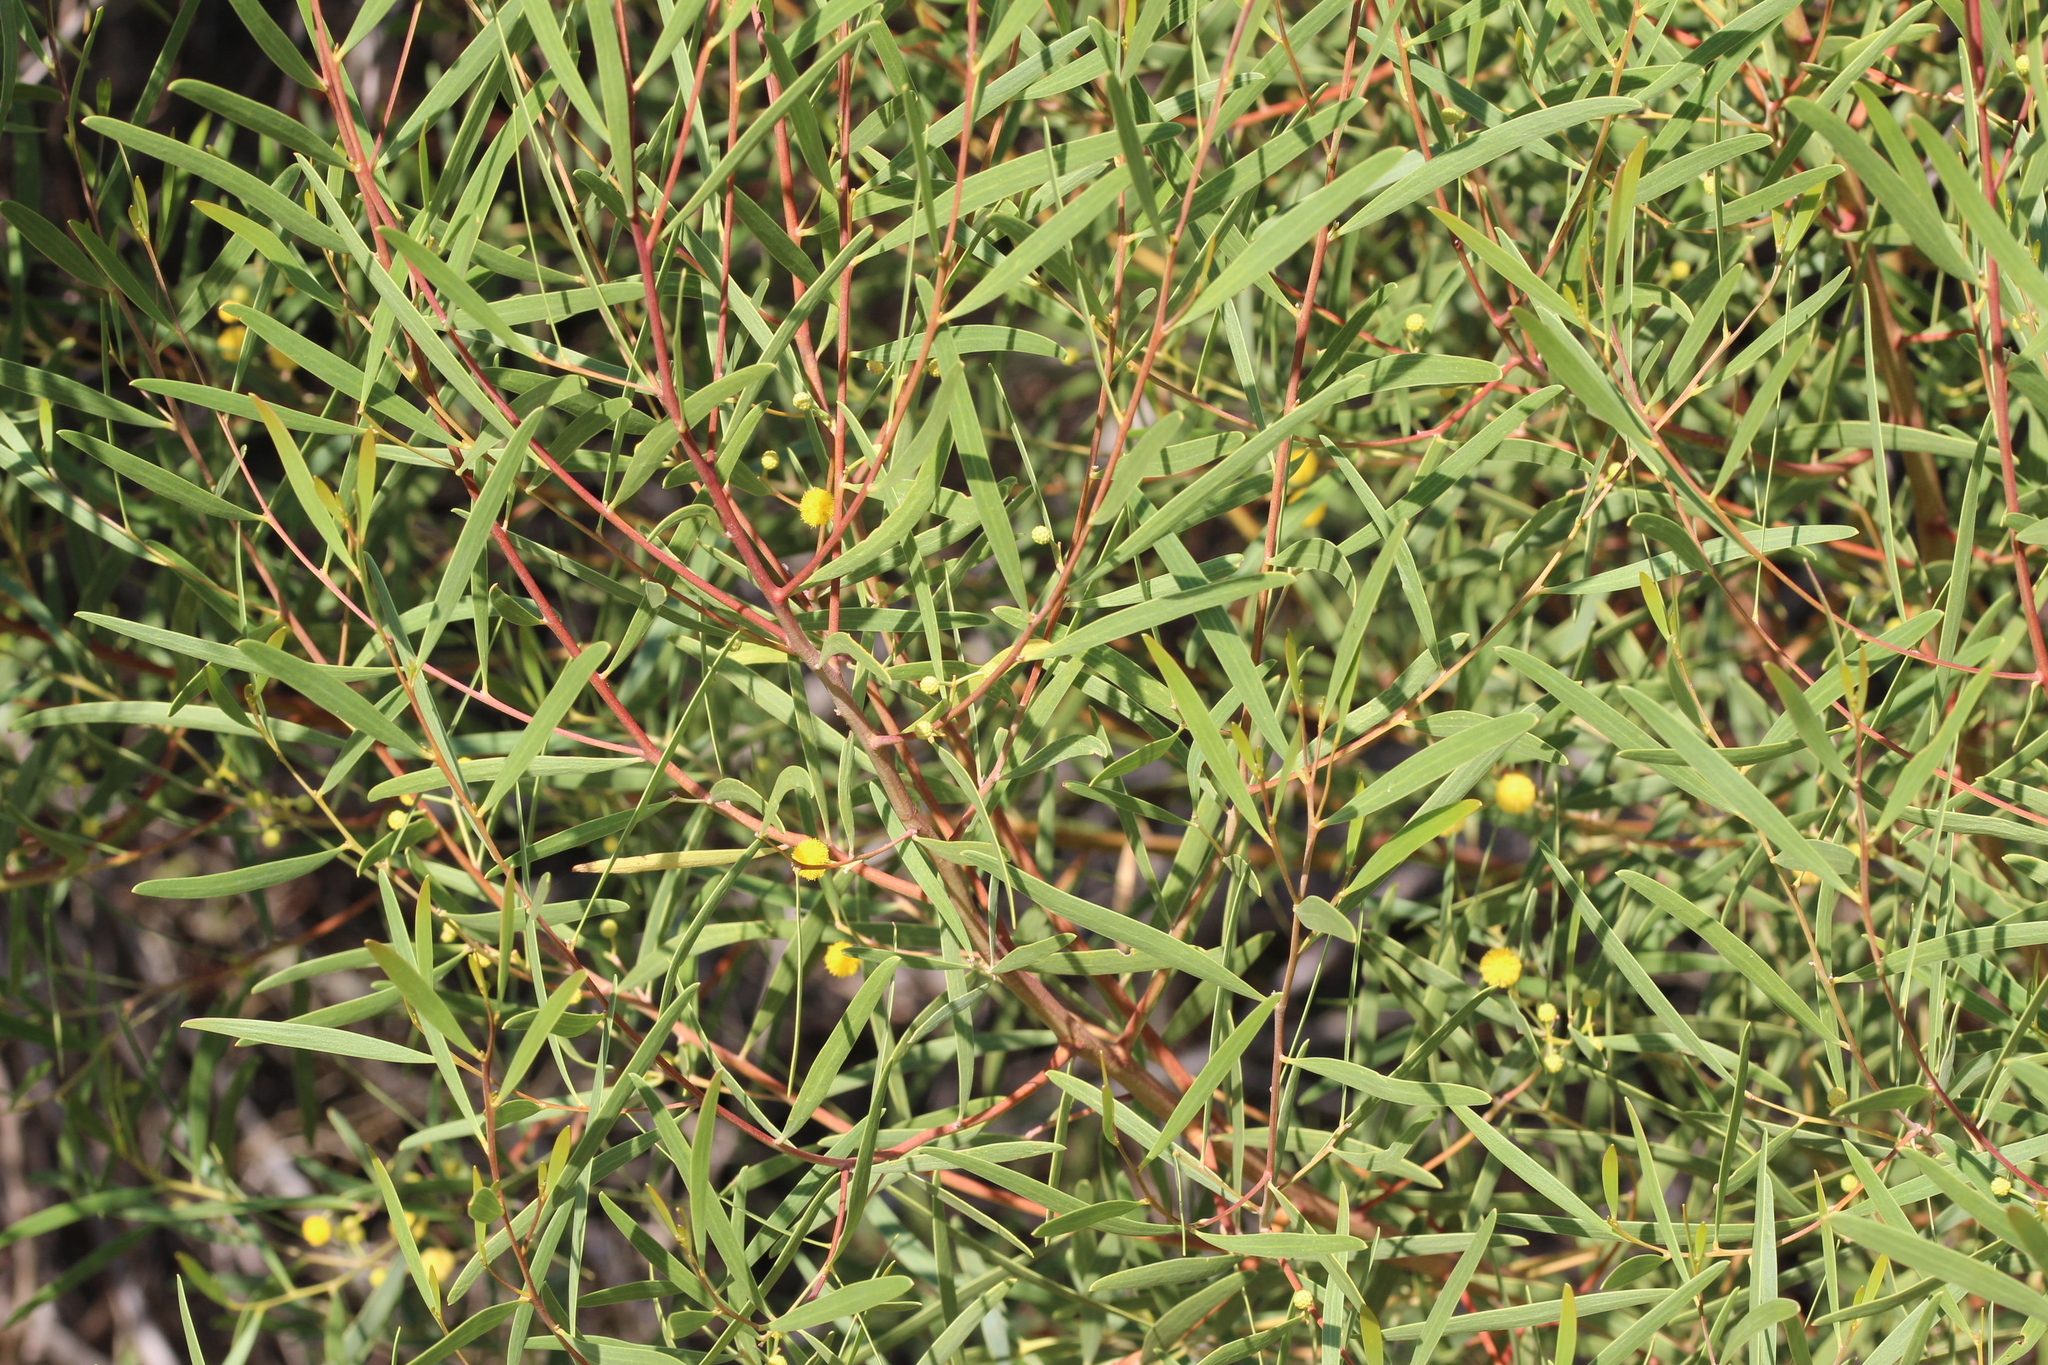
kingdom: Plantae
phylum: Tracheophyta
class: Magnoliopsida
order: Fabales
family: Fabaceae
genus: Acacia
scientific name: Acacia cyclops
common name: Coastal wattle
